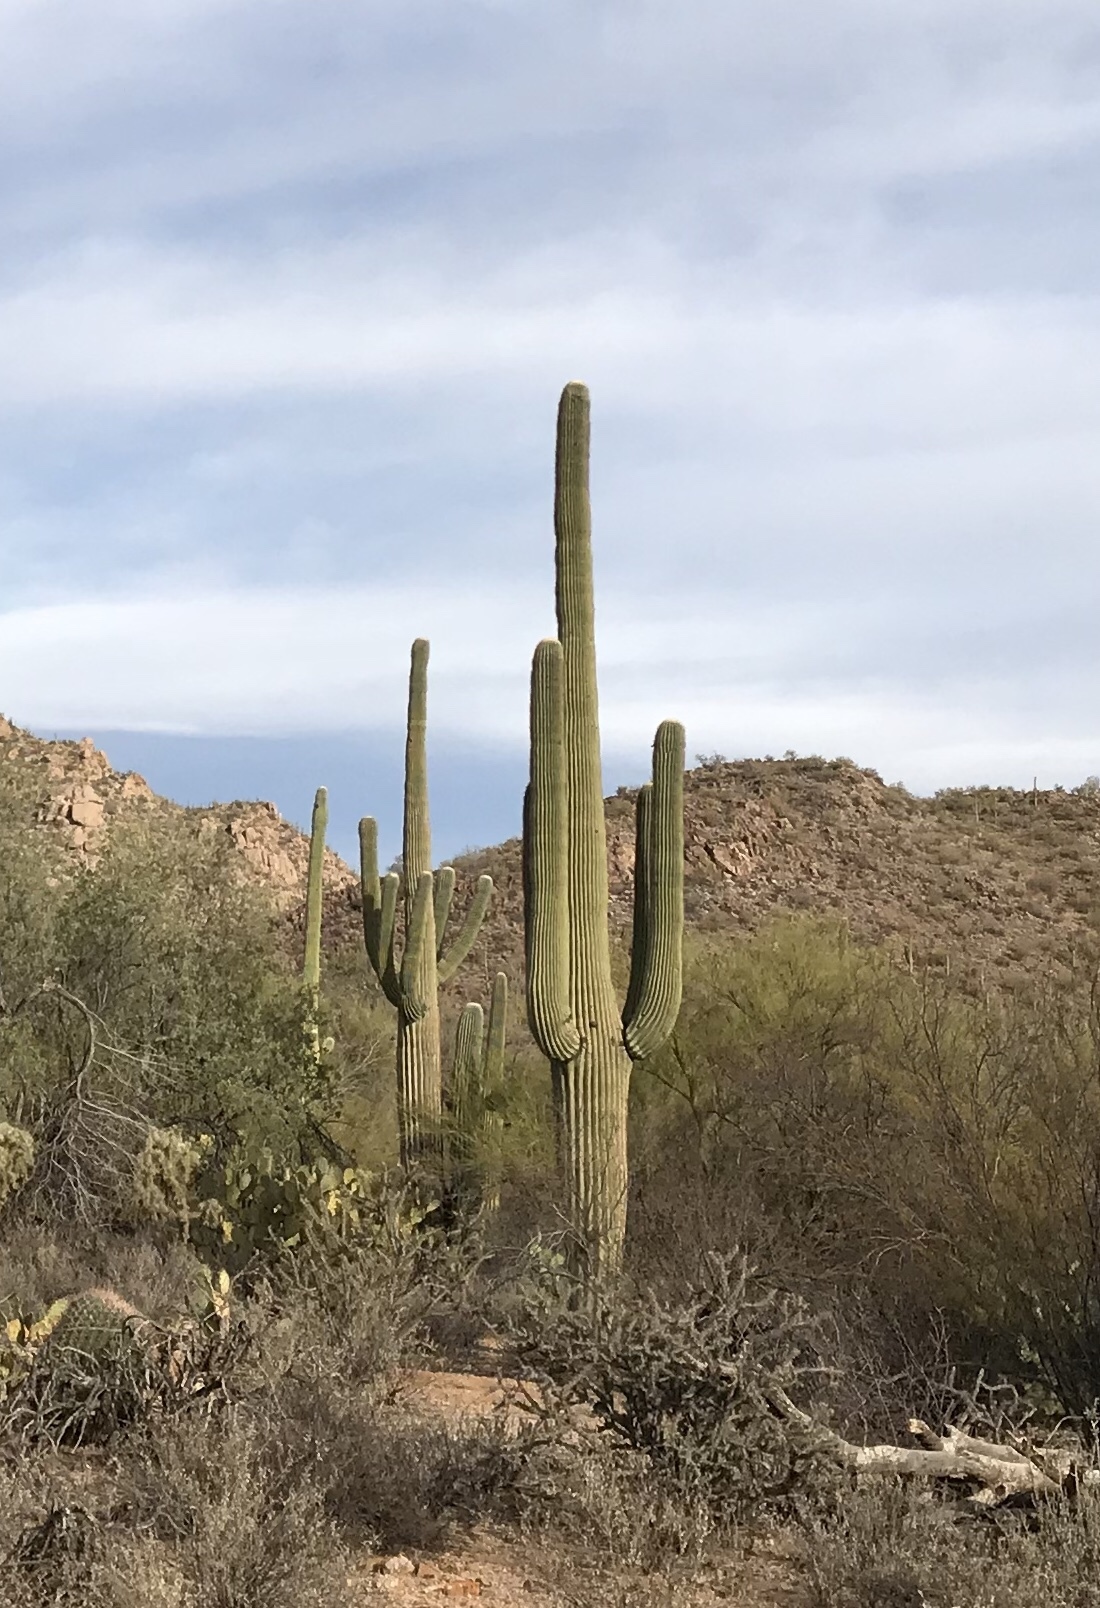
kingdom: Plantae
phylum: Tracheophyta
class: Magnoliopsida
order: Caryophyllales
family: Cactaceae
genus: Carnegiea
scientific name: Carnegiea gigantea
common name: Saguaro
